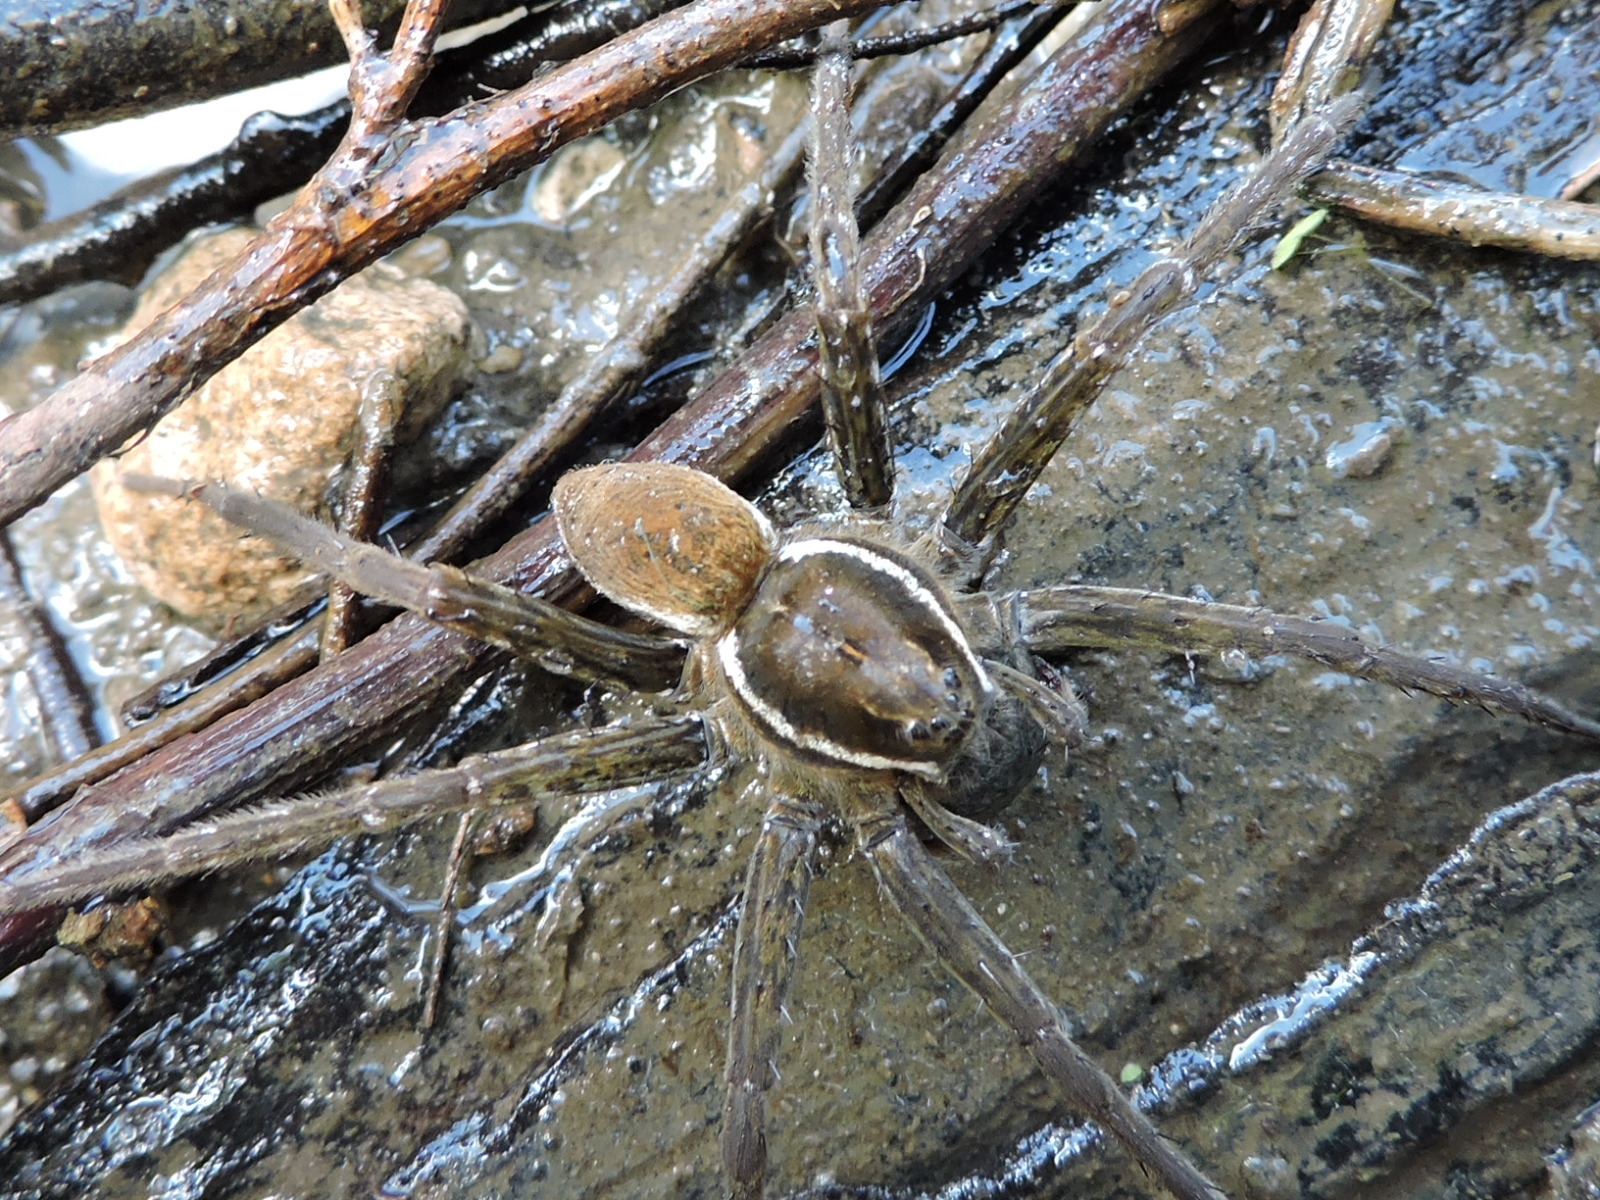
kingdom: Animalia
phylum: Arthropoda
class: Arachnida
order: Araneae
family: Pisauridae
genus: Dolomedes
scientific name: Dolomedes triton
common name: Six-spotted fishing spider
